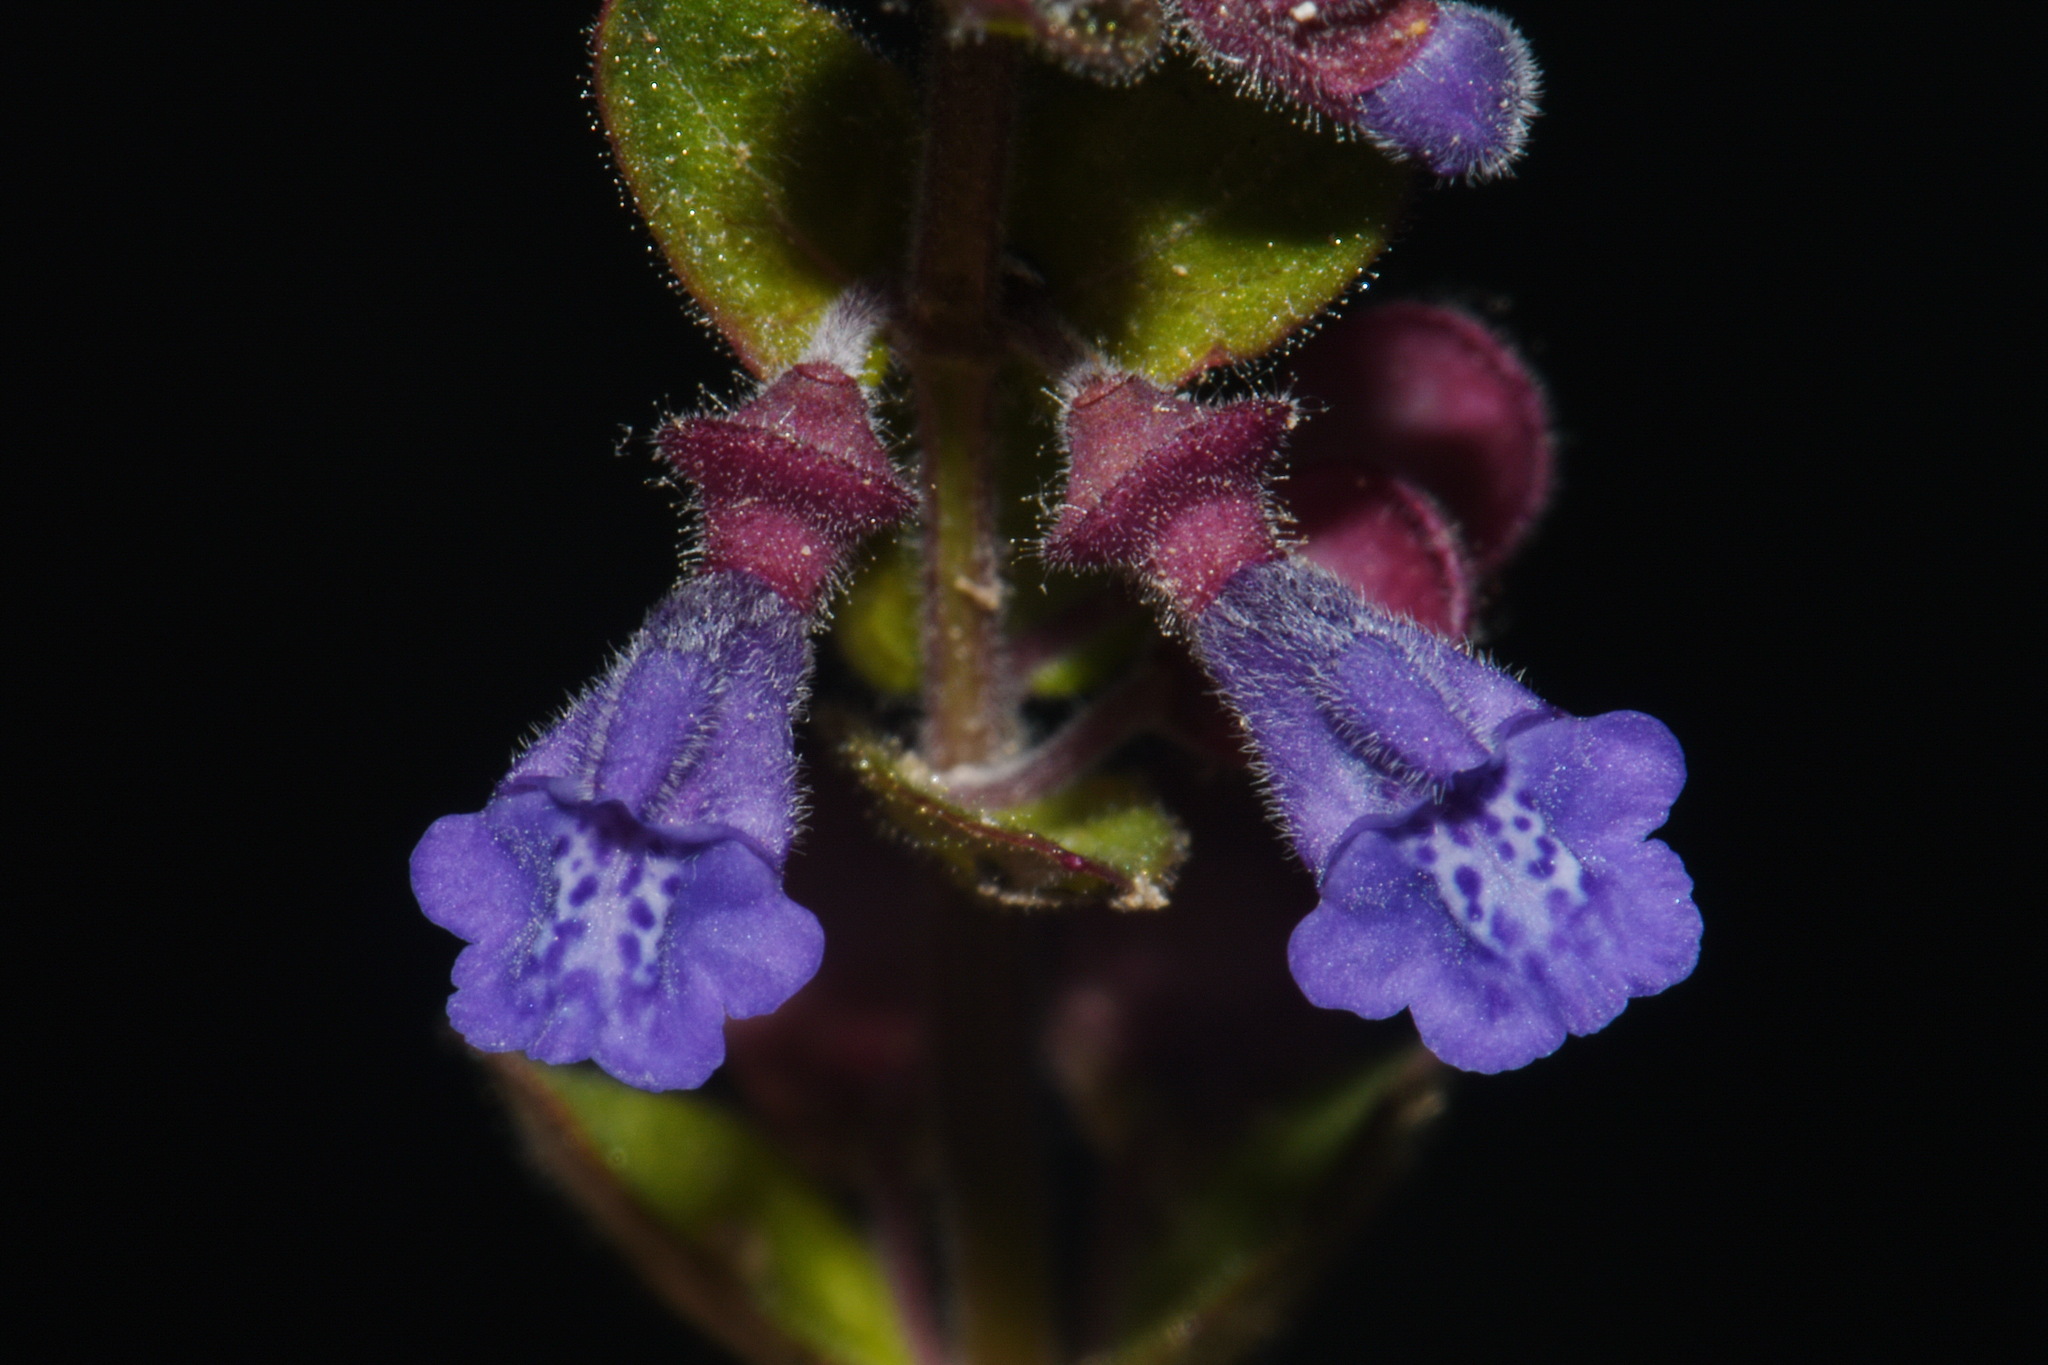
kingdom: Plantae
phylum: Tracheophyta
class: Magnoliopsida
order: Lamiales
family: Lamiaceae
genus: Scutellaria
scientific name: Scutellaria parvula
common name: Little scullcap
